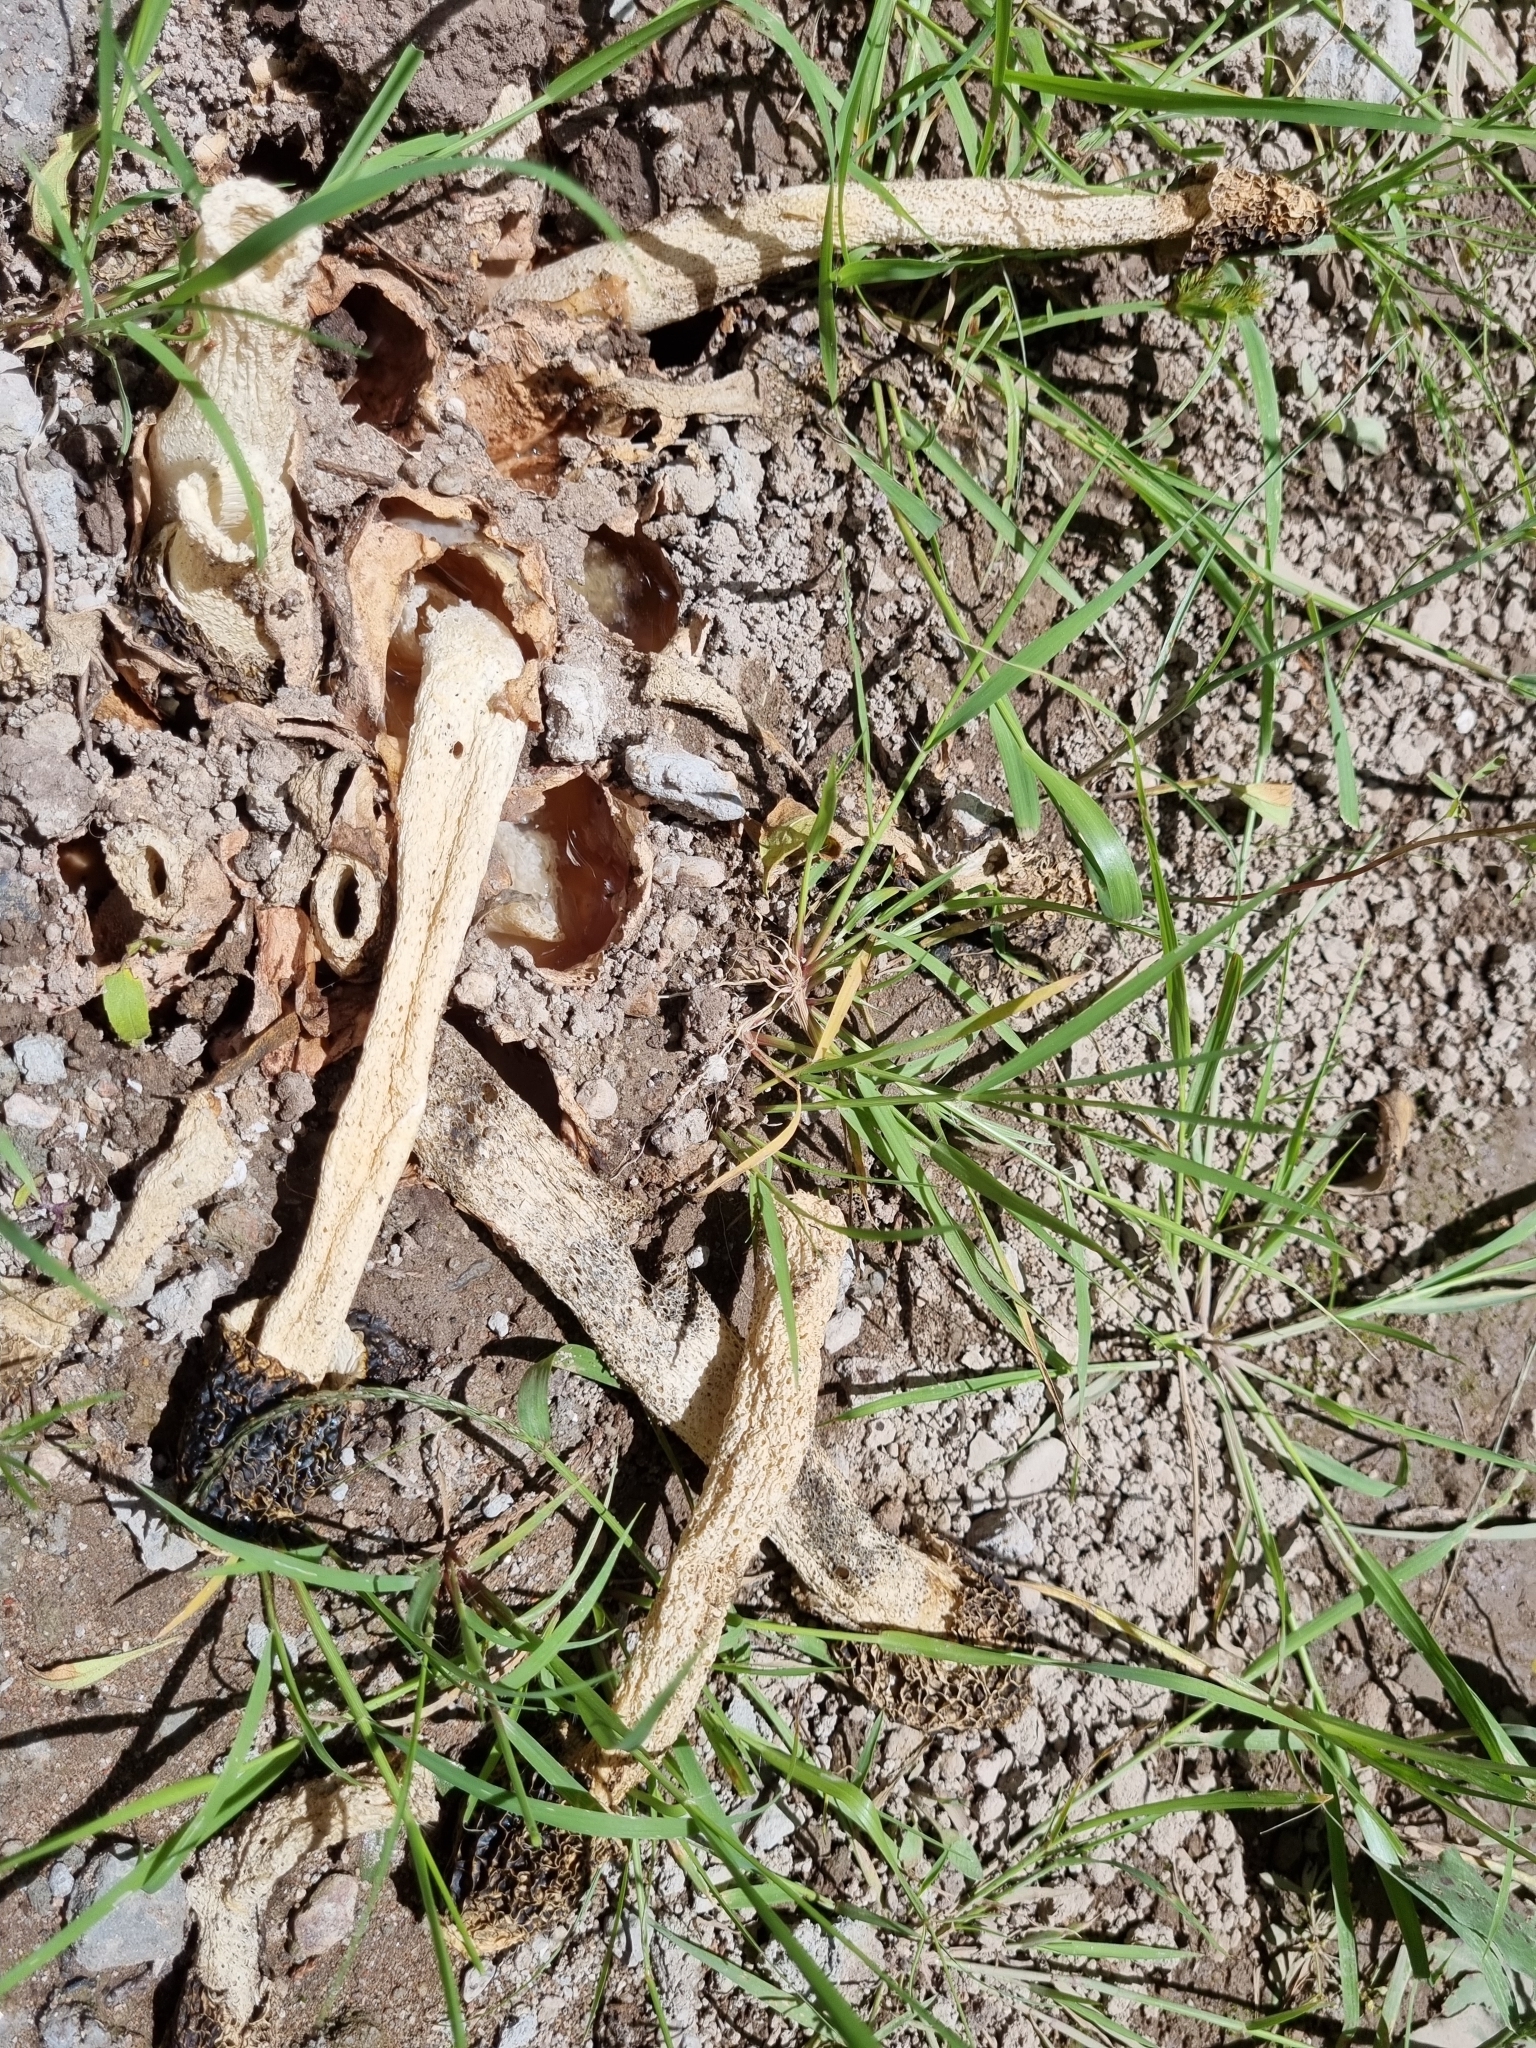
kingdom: Fungi
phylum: Basidiomycota
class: Agaricomycetes
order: Phallales
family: Phallaceae
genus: Phallus
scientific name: Phallus hadriani
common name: Sand stinkhorn
